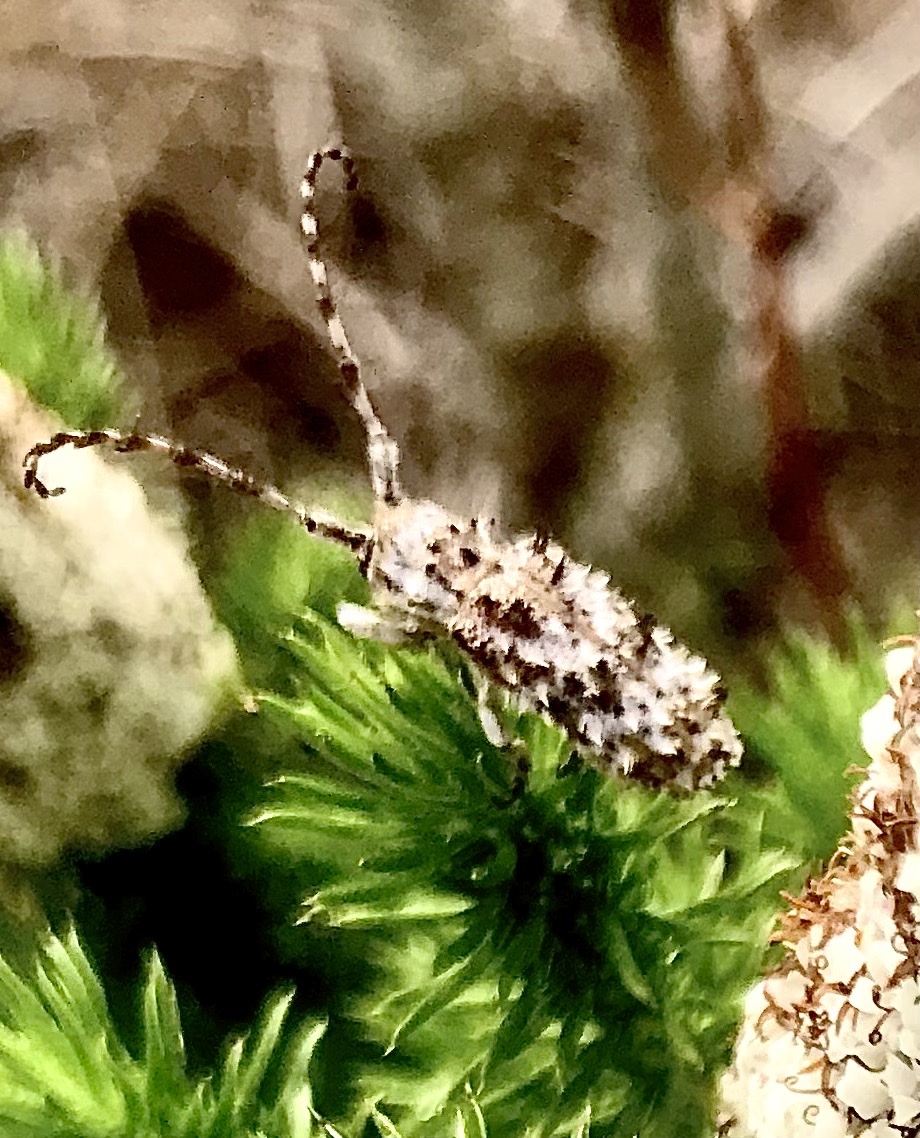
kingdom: Animalia
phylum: Arthropoda
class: Insecta
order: Coleoptera
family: Cerambycidae
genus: Cloniocerus
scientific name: Cloniocerus albomarmoratus
